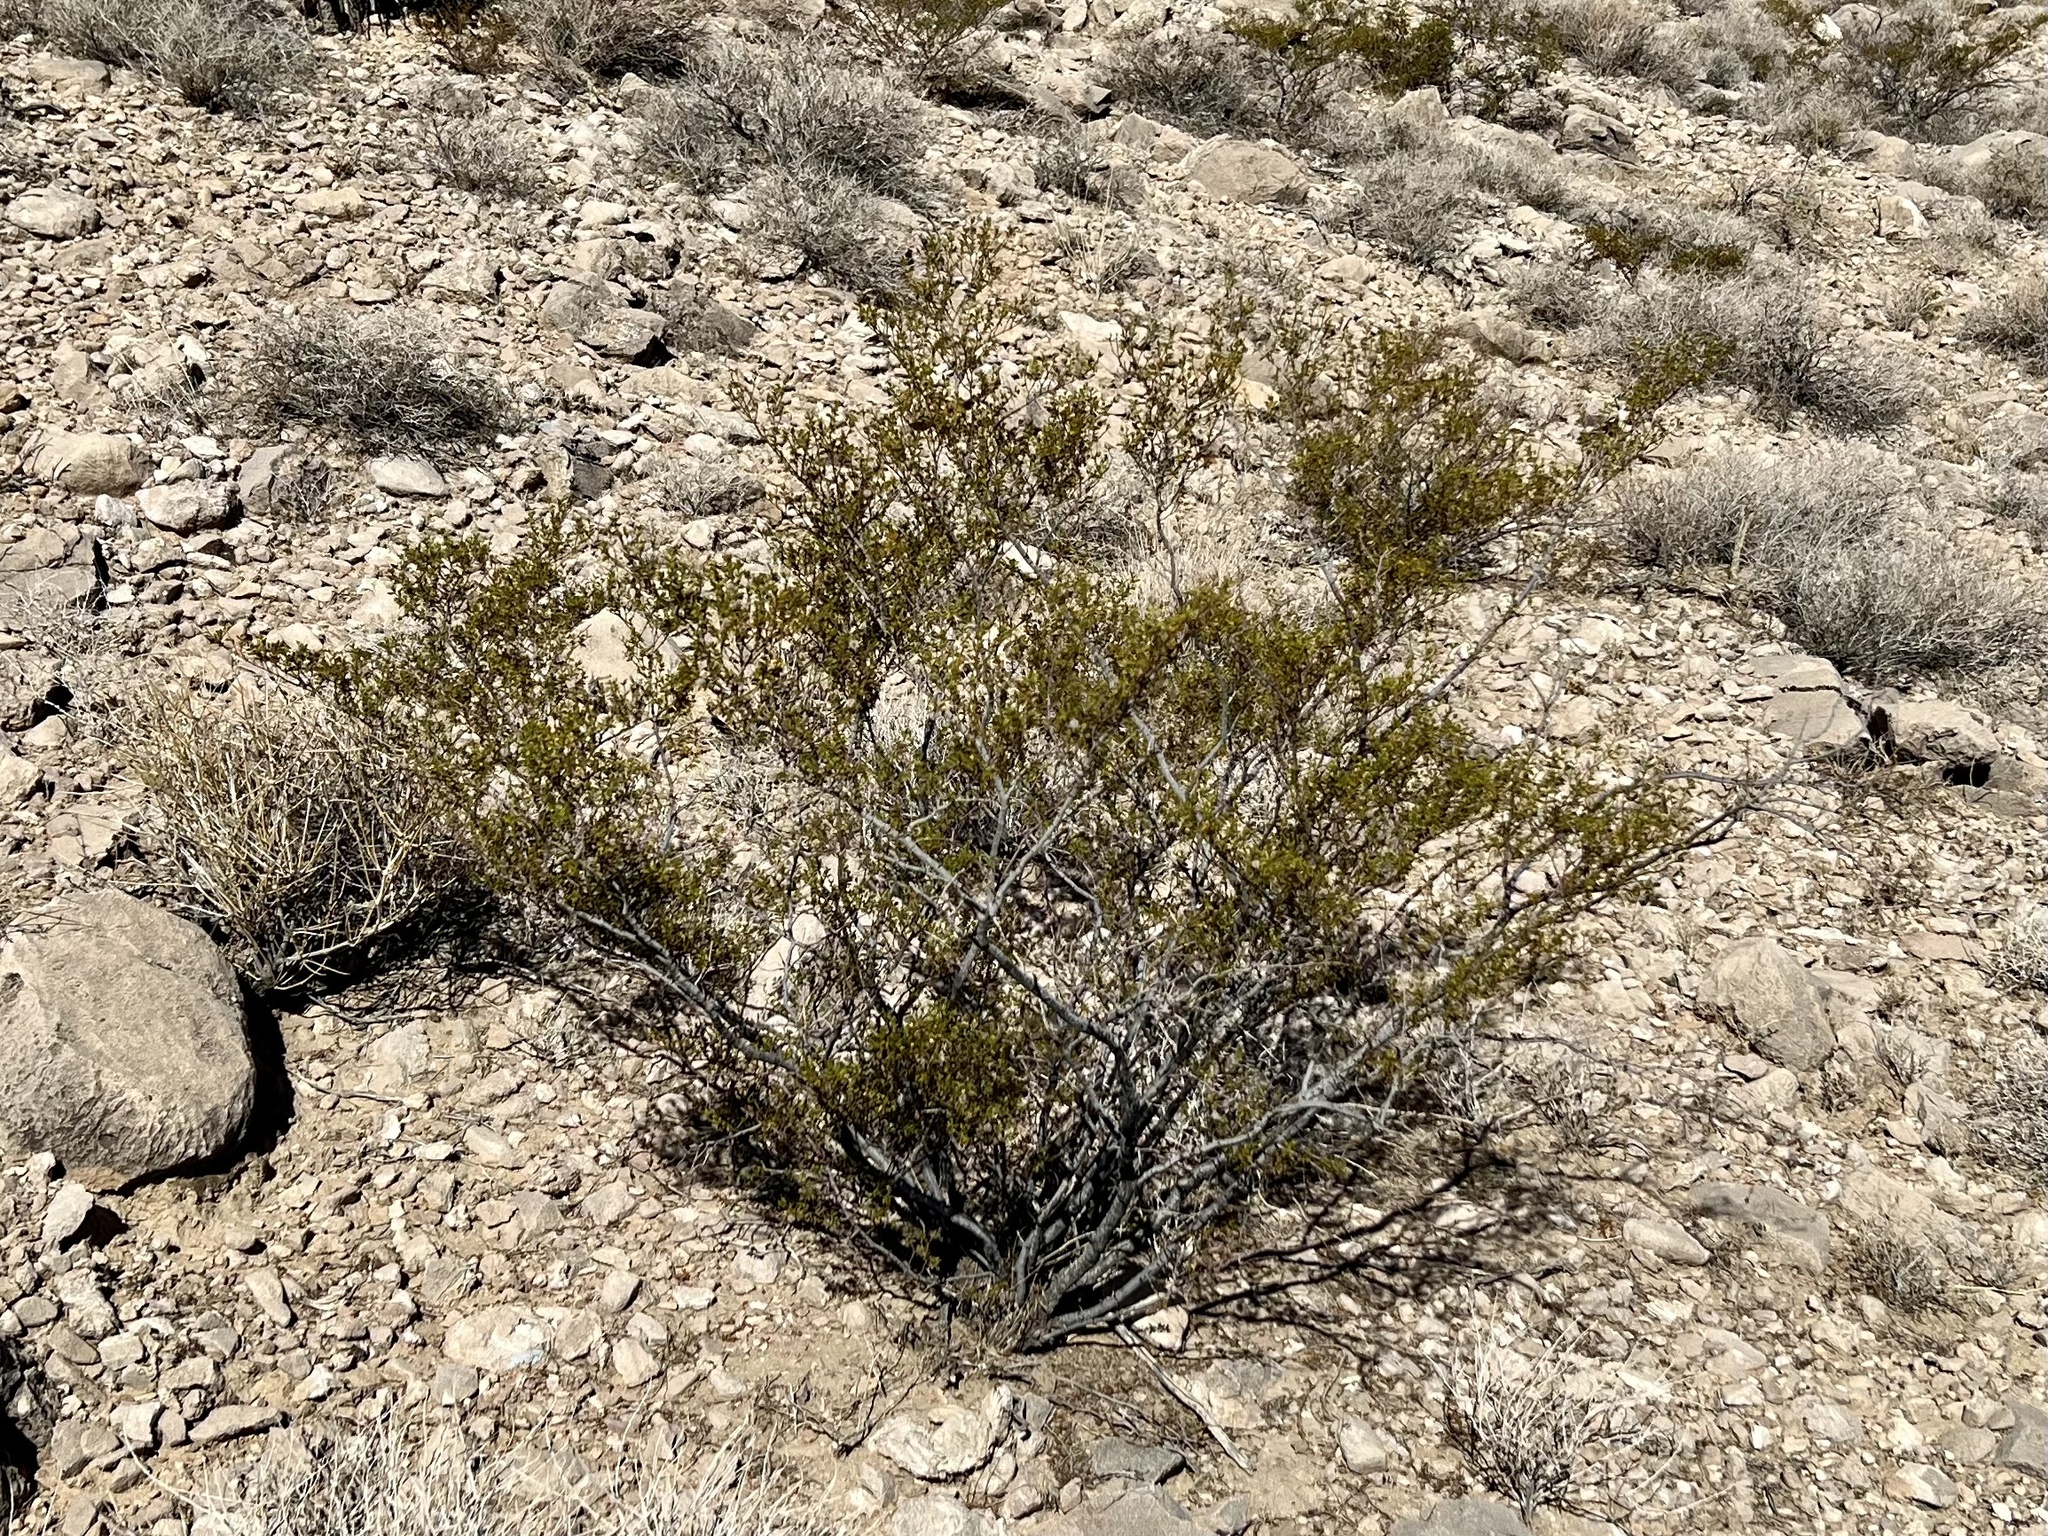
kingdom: Plantae
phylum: Tracheophyta
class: Magnoliopsida
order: Zygophyllales
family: Zygophyllaceae
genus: Larrea
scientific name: Larrea tridentata
